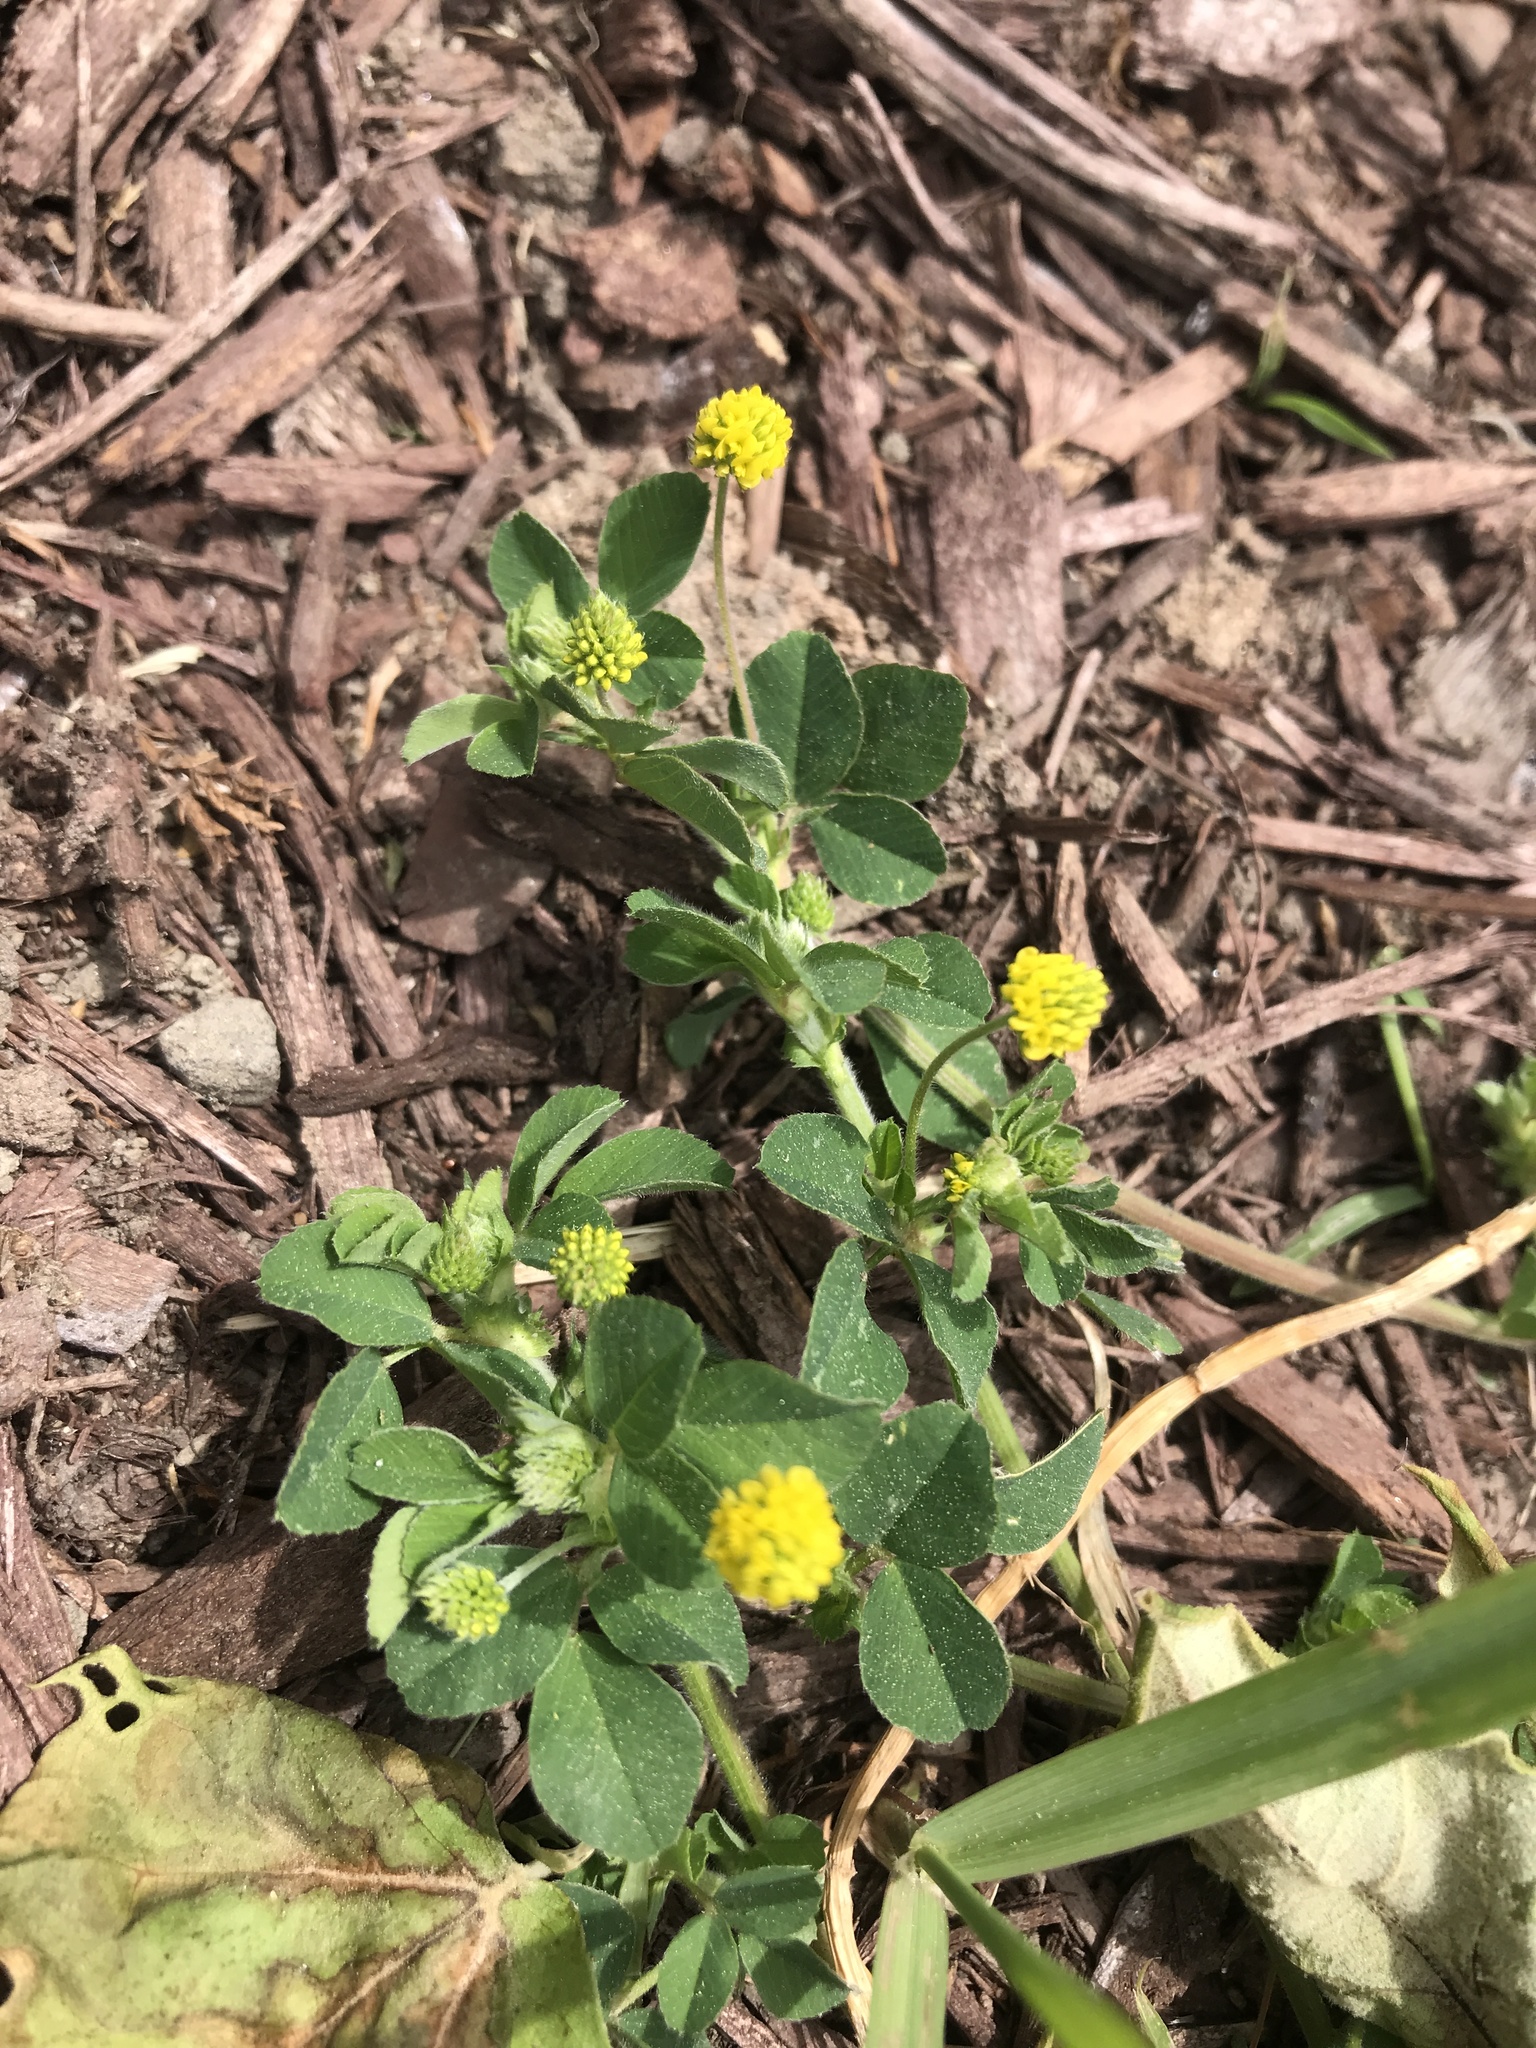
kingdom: Plantae
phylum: Tracheophyta
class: Magnoliopsida
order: Fabales
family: Fabaceae
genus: Medicago
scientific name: Medicago lupulina
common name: Black medick
